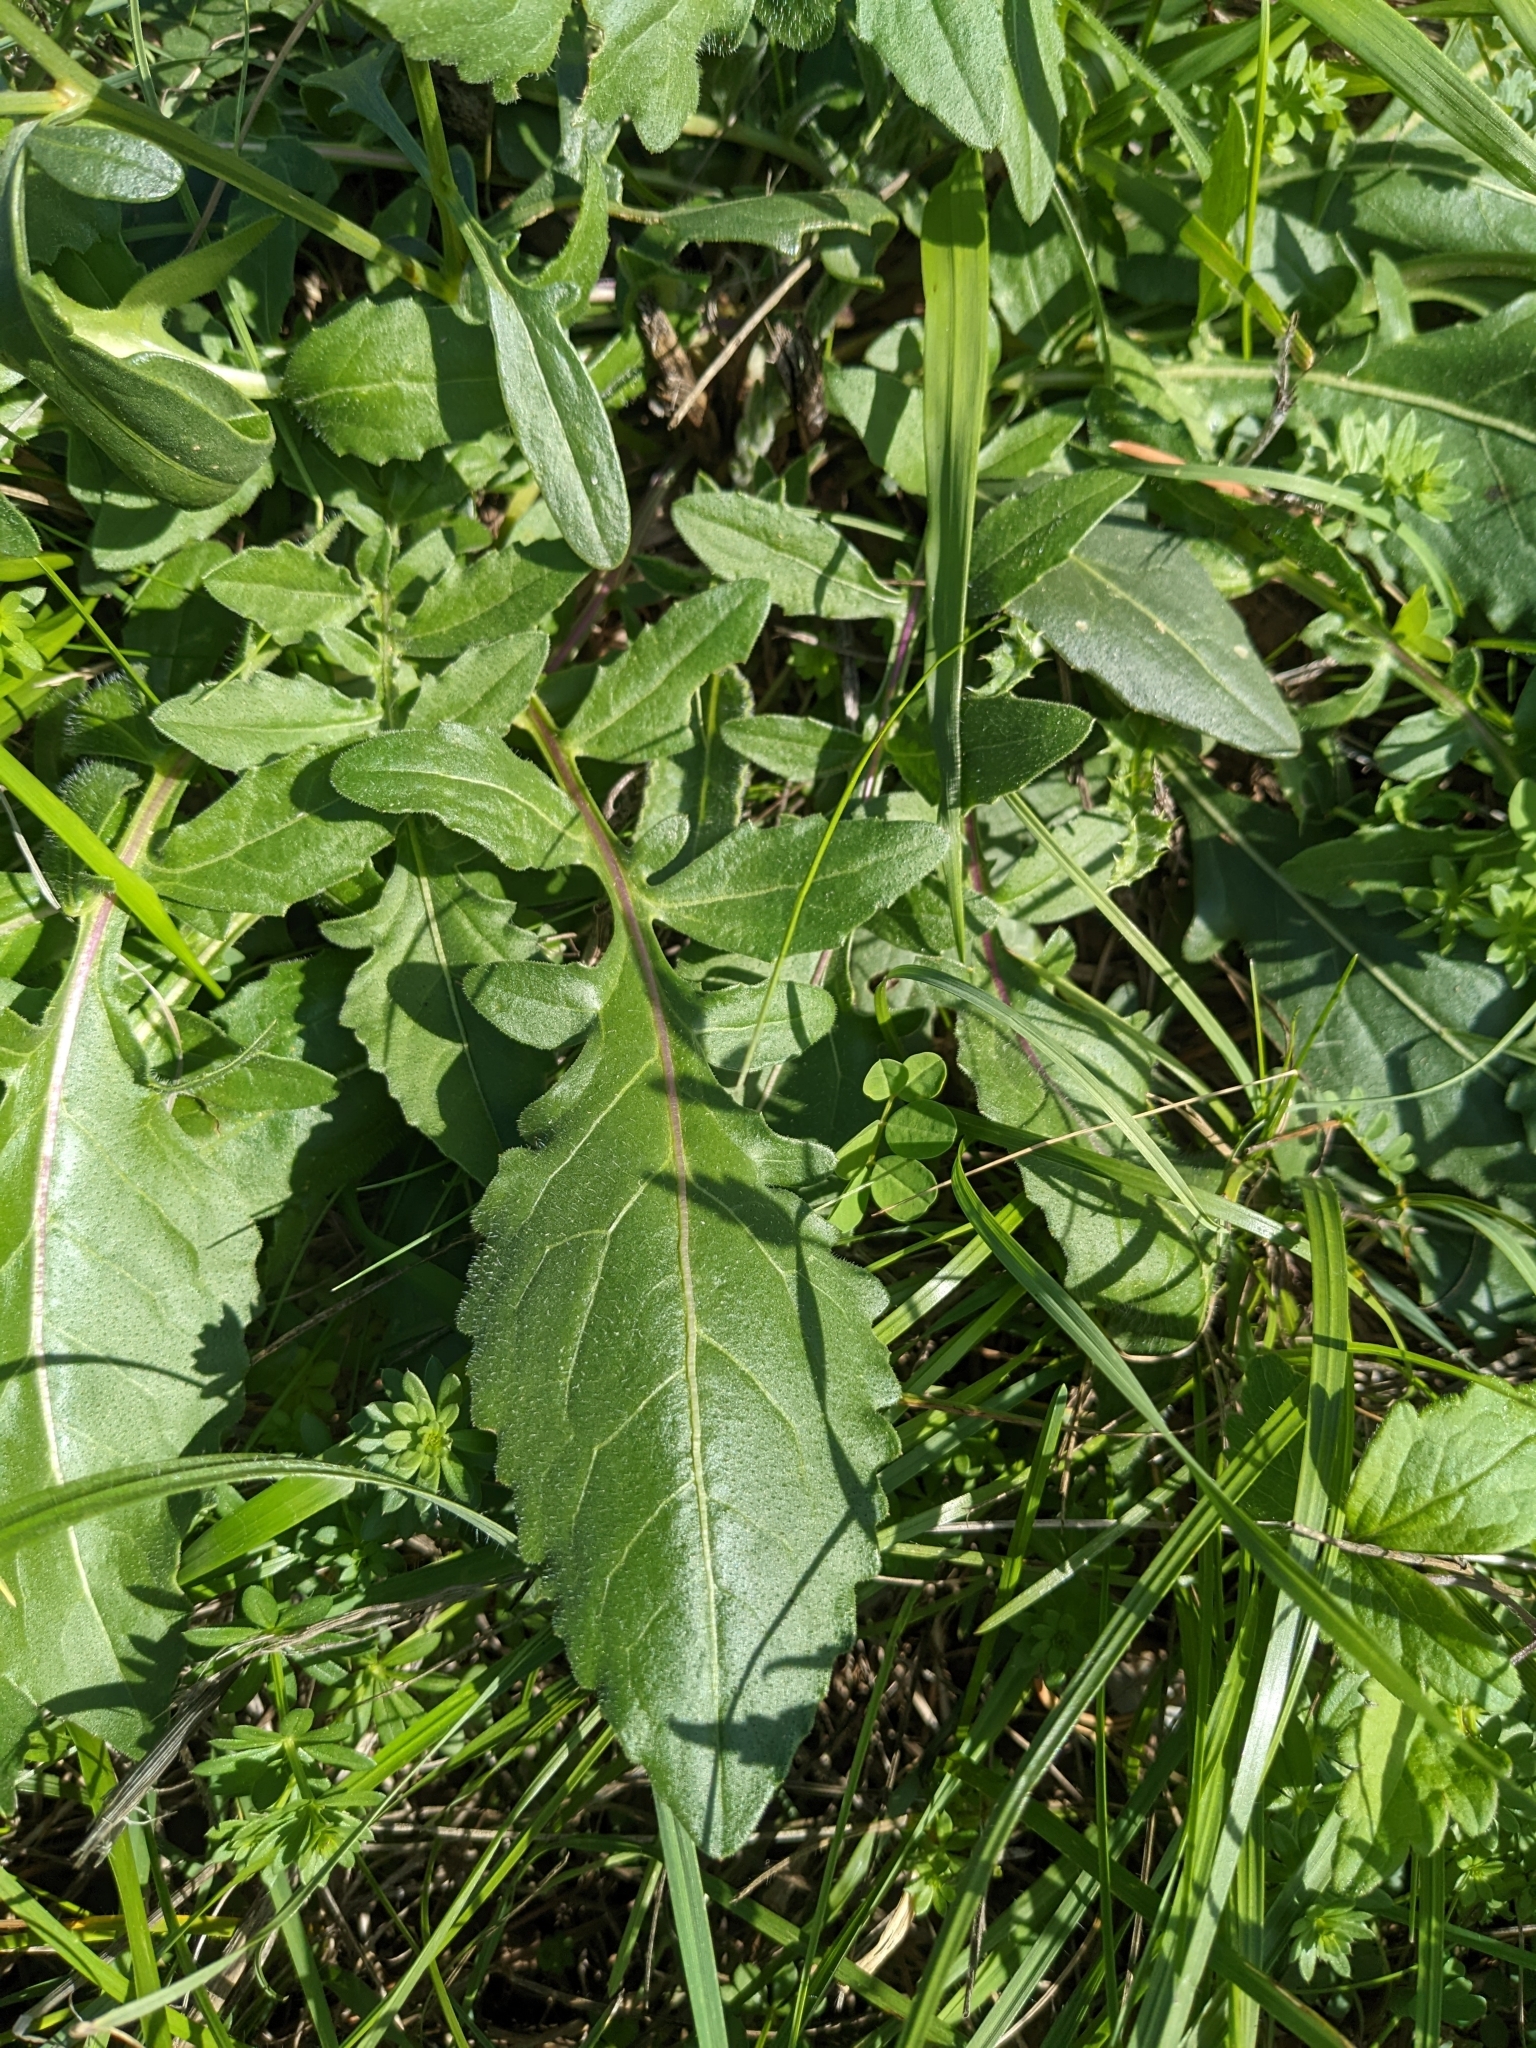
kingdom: Plantae
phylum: Tracheophyta
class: Magnoliopsida
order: Asterales
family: Asteraceae
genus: Centaurea
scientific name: Centaurea scabiosa
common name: Greater knapweed
